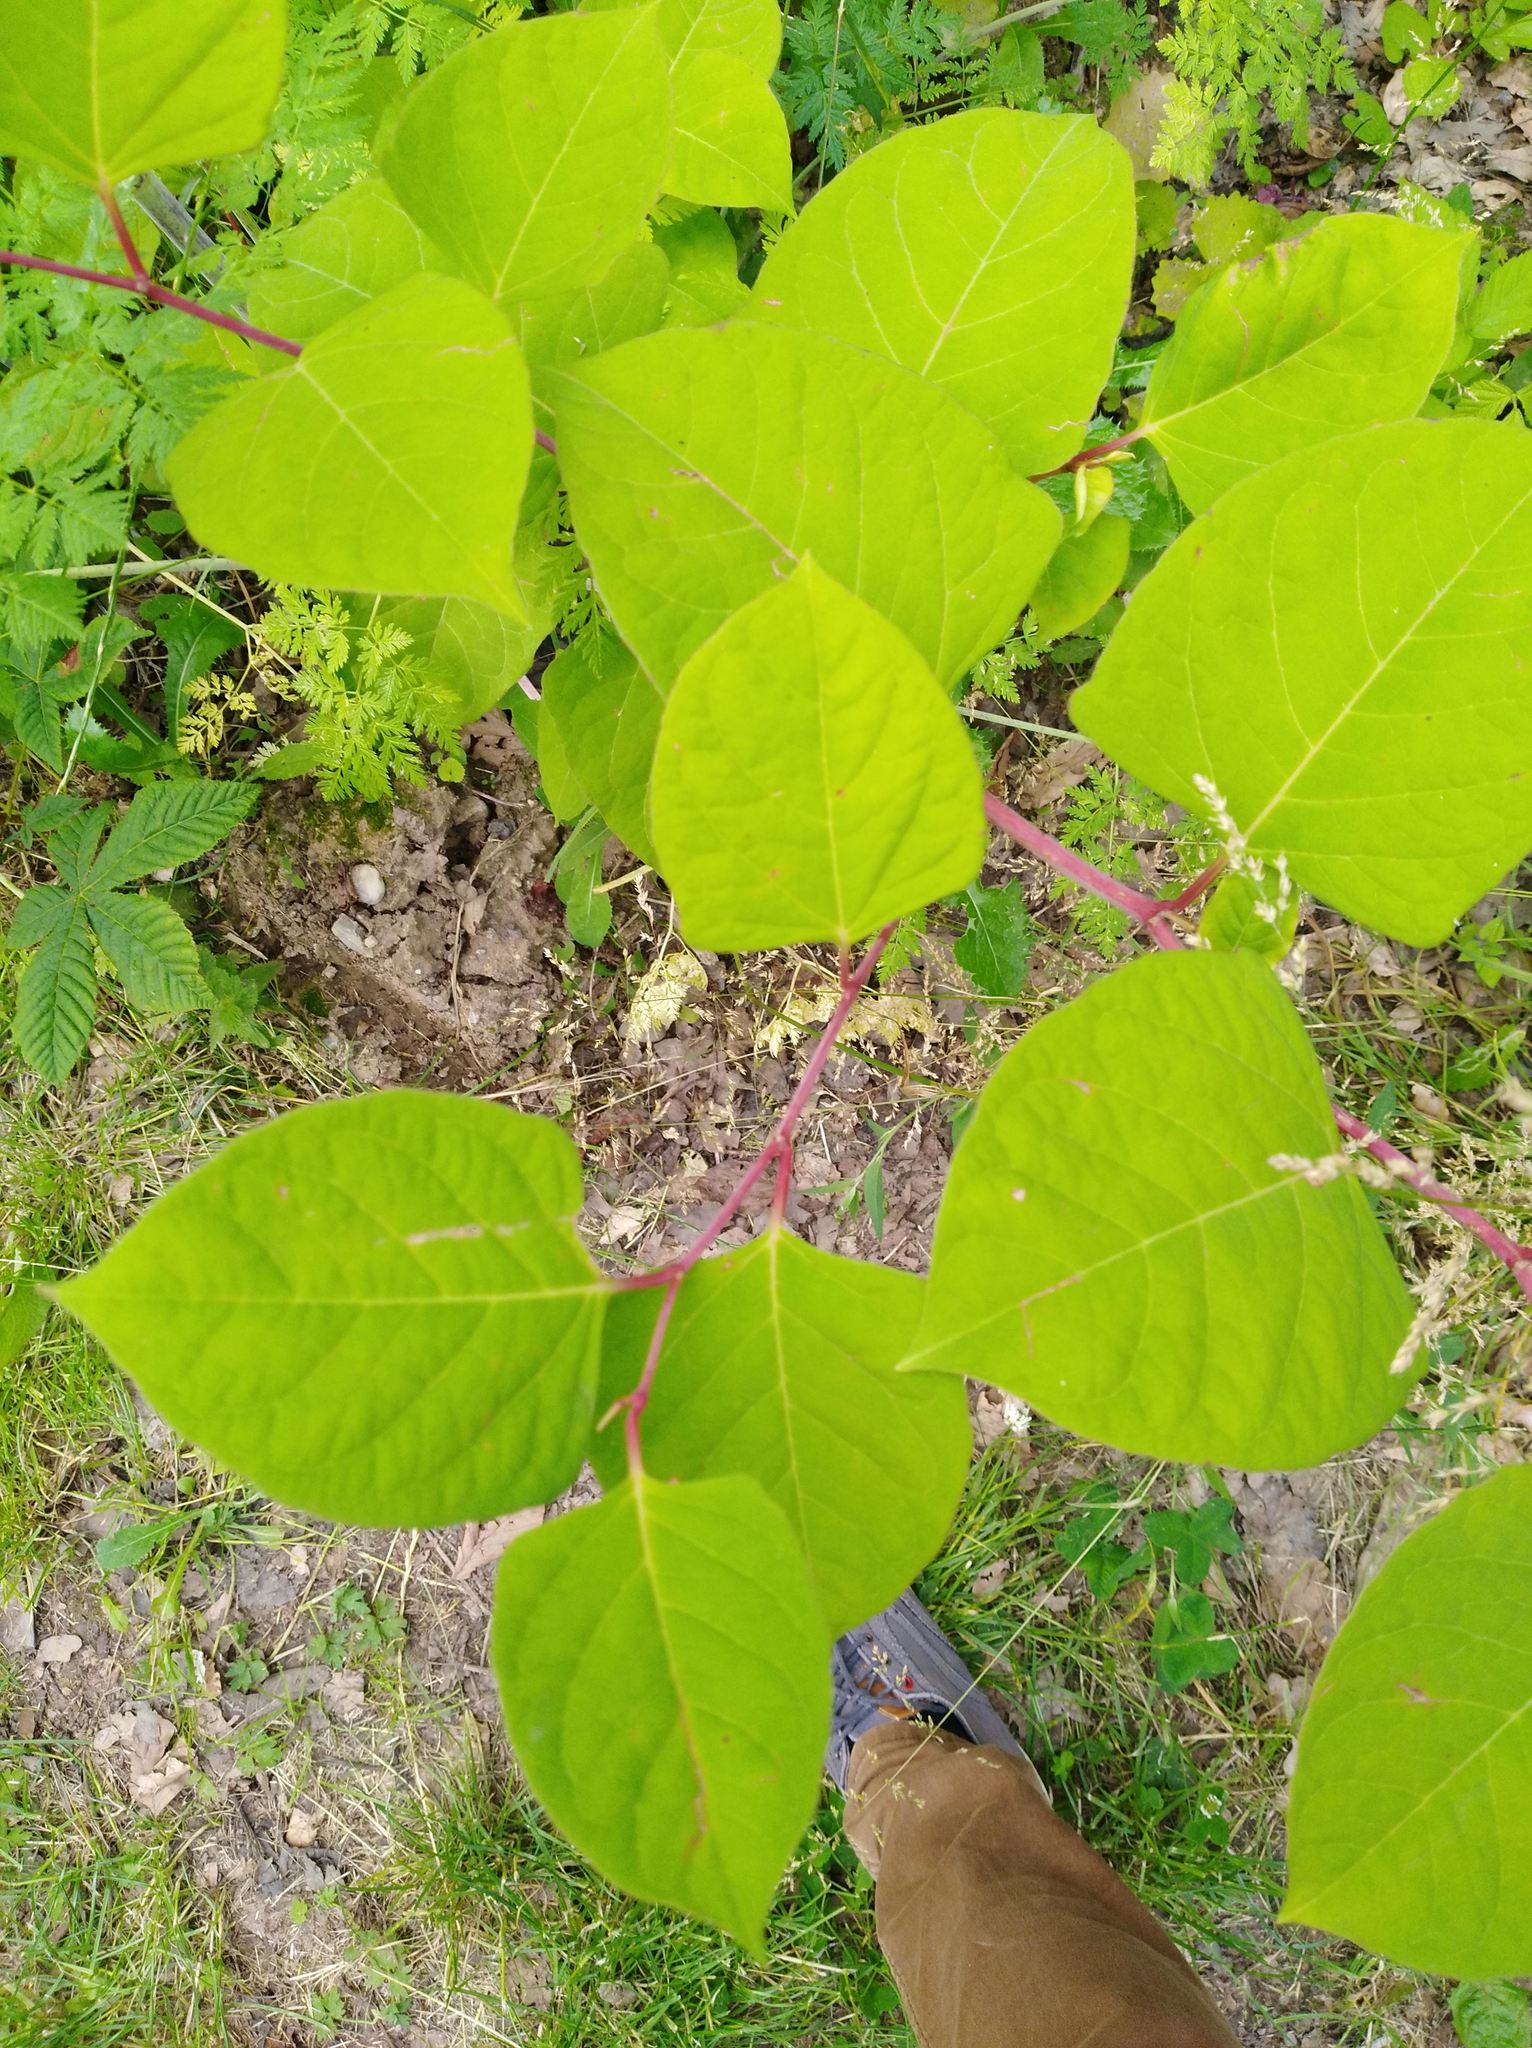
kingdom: Plantae
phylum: Tracheophyta
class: Magnoliopsida
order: Caryophyllales
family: Polygonaceae
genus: Reynoutria
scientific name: Reynoutria japonica
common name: Japanese knotweed
